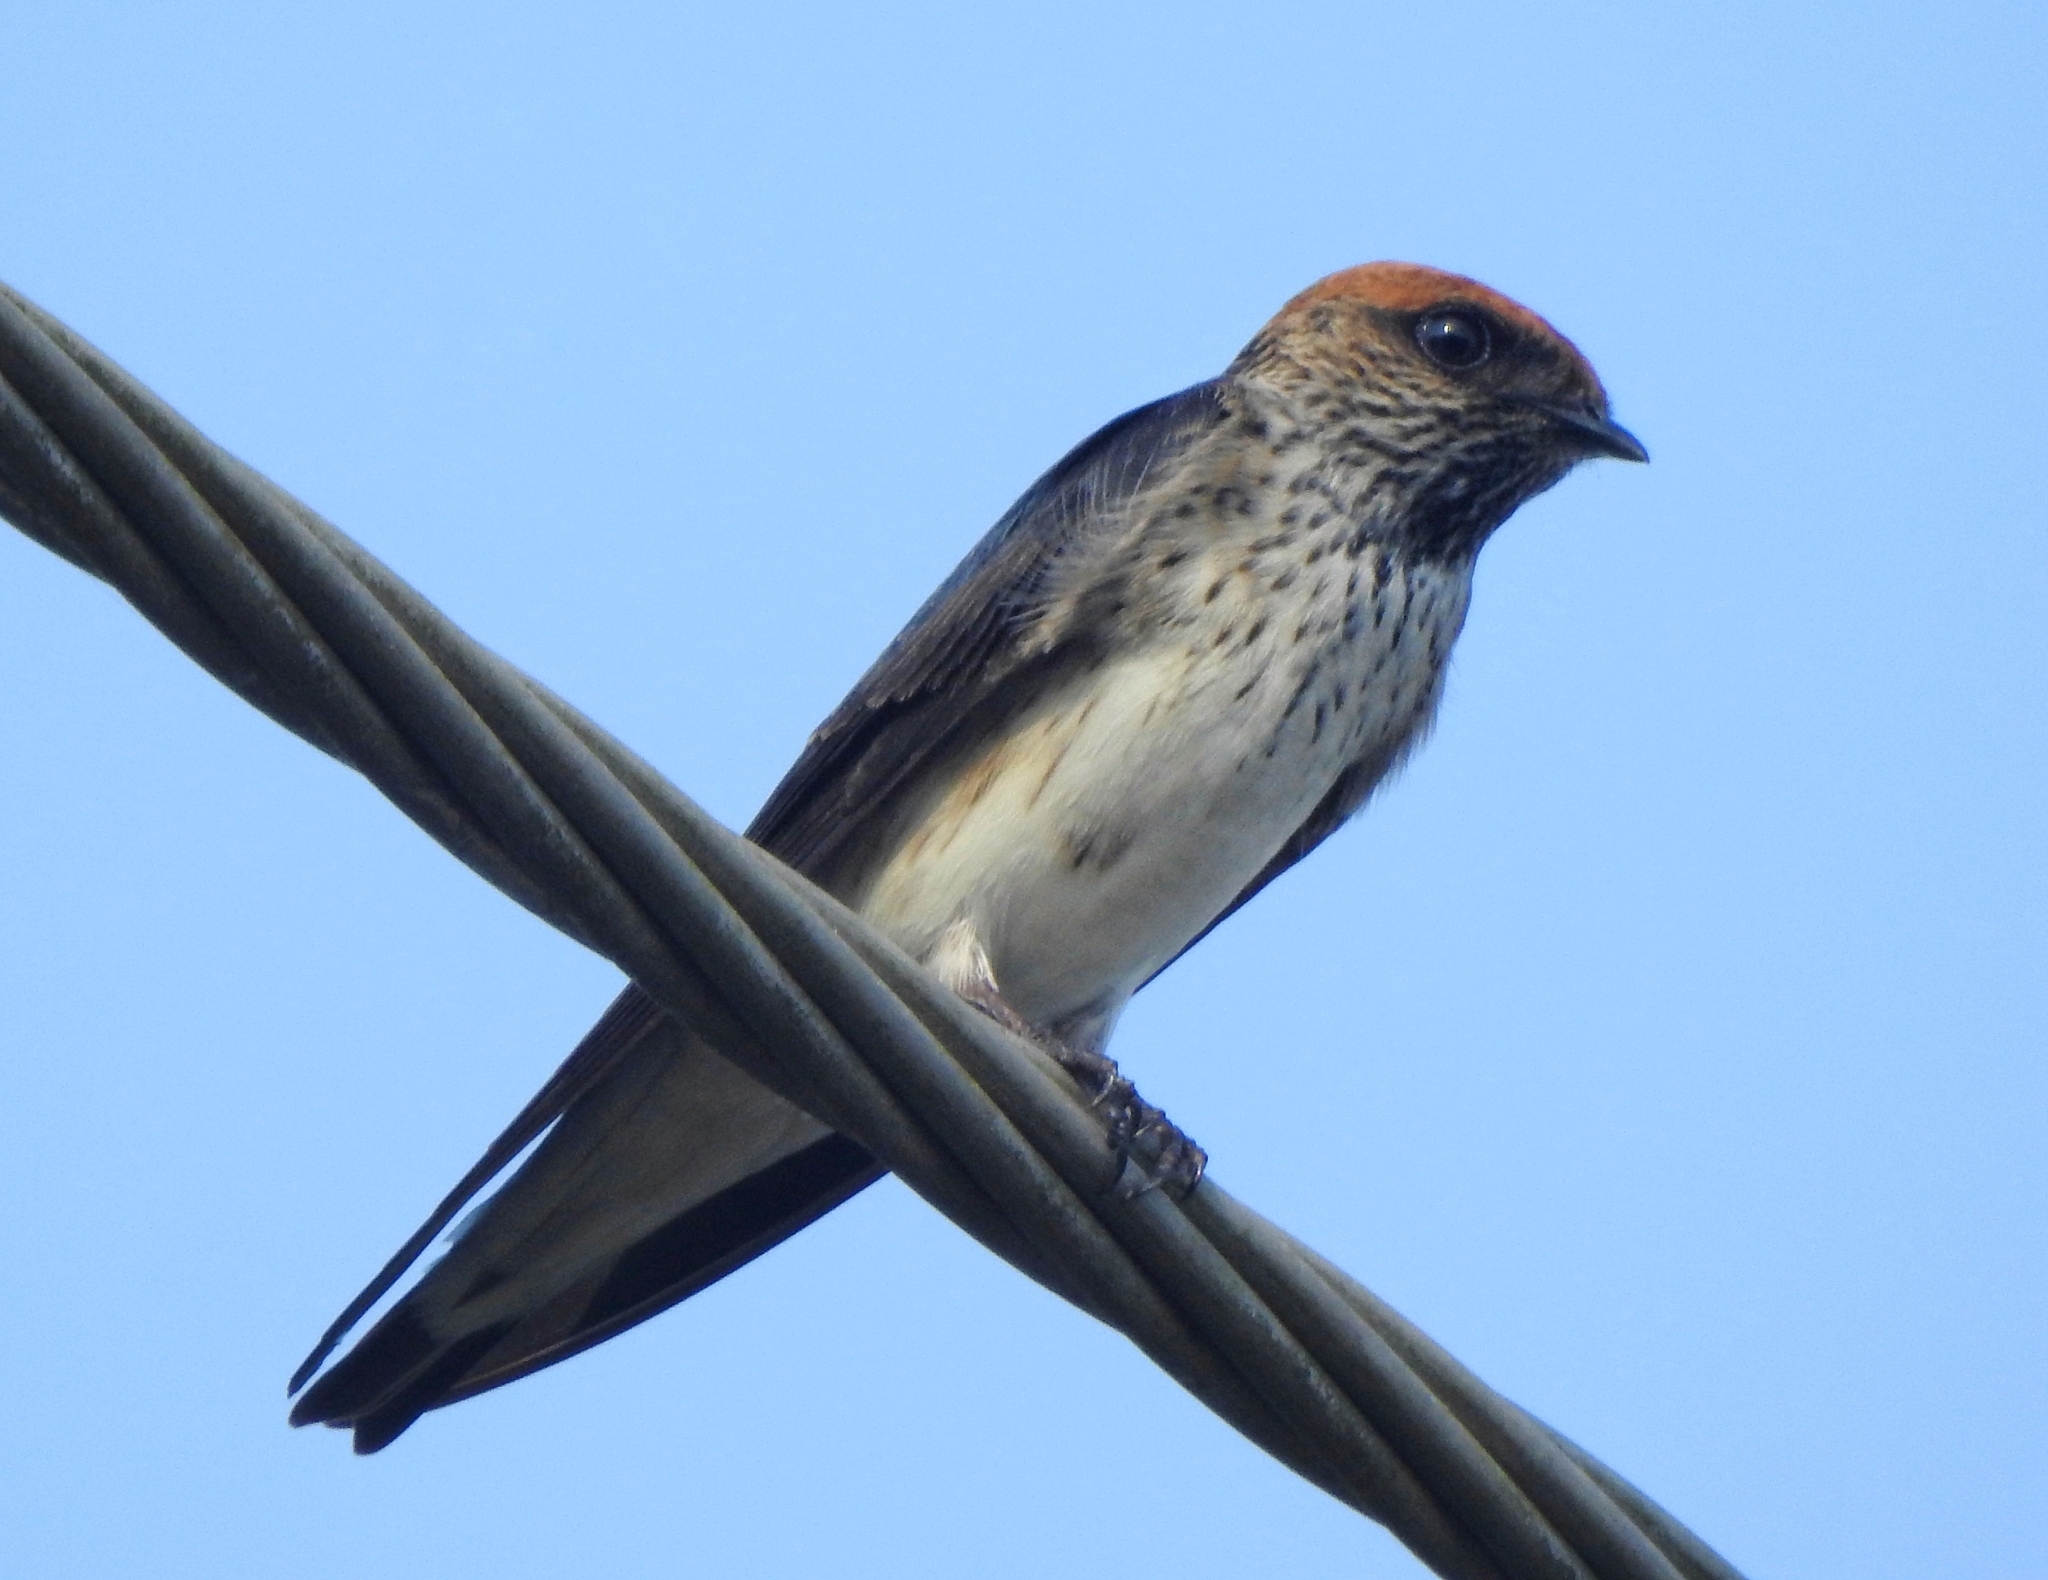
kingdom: Animalia
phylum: Chordata
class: Aves
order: Passeriformes
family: Hirundinidae
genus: Petrochelidon
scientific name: Petrochelidon fluvicola
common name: Streak-throated swallow
